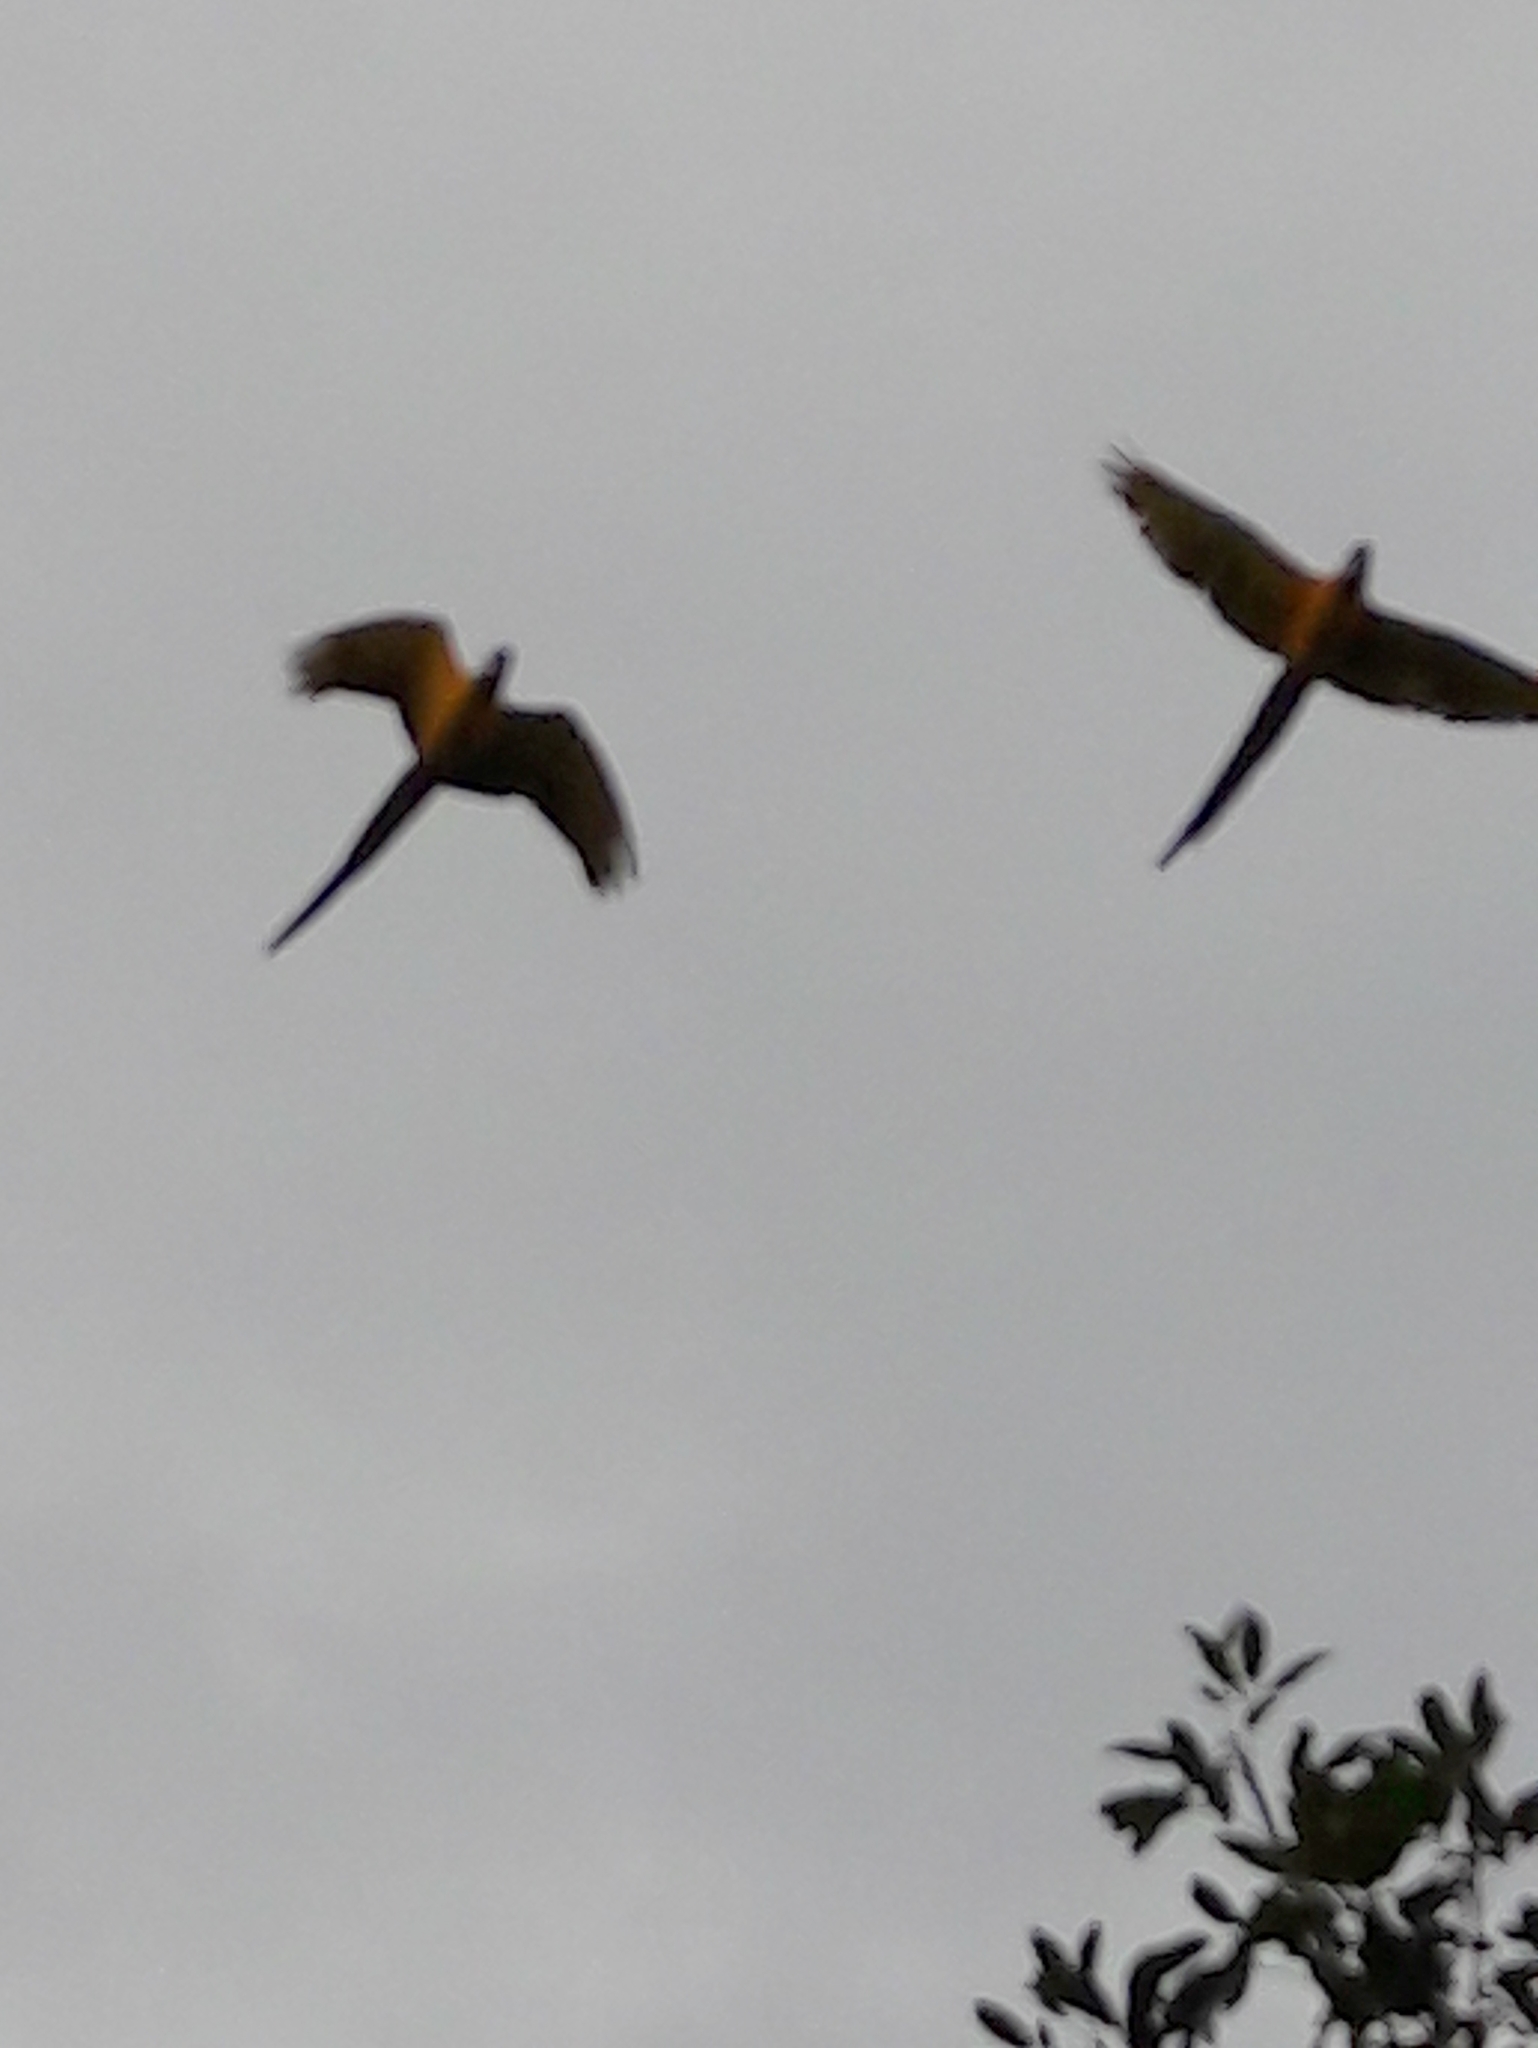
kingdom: Animalia
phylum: Chordata
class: Aves
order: Psittaciformes
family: Psittacidae
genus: Ara
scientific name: Ara ararauna
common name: Blue-and-yellow macaw
